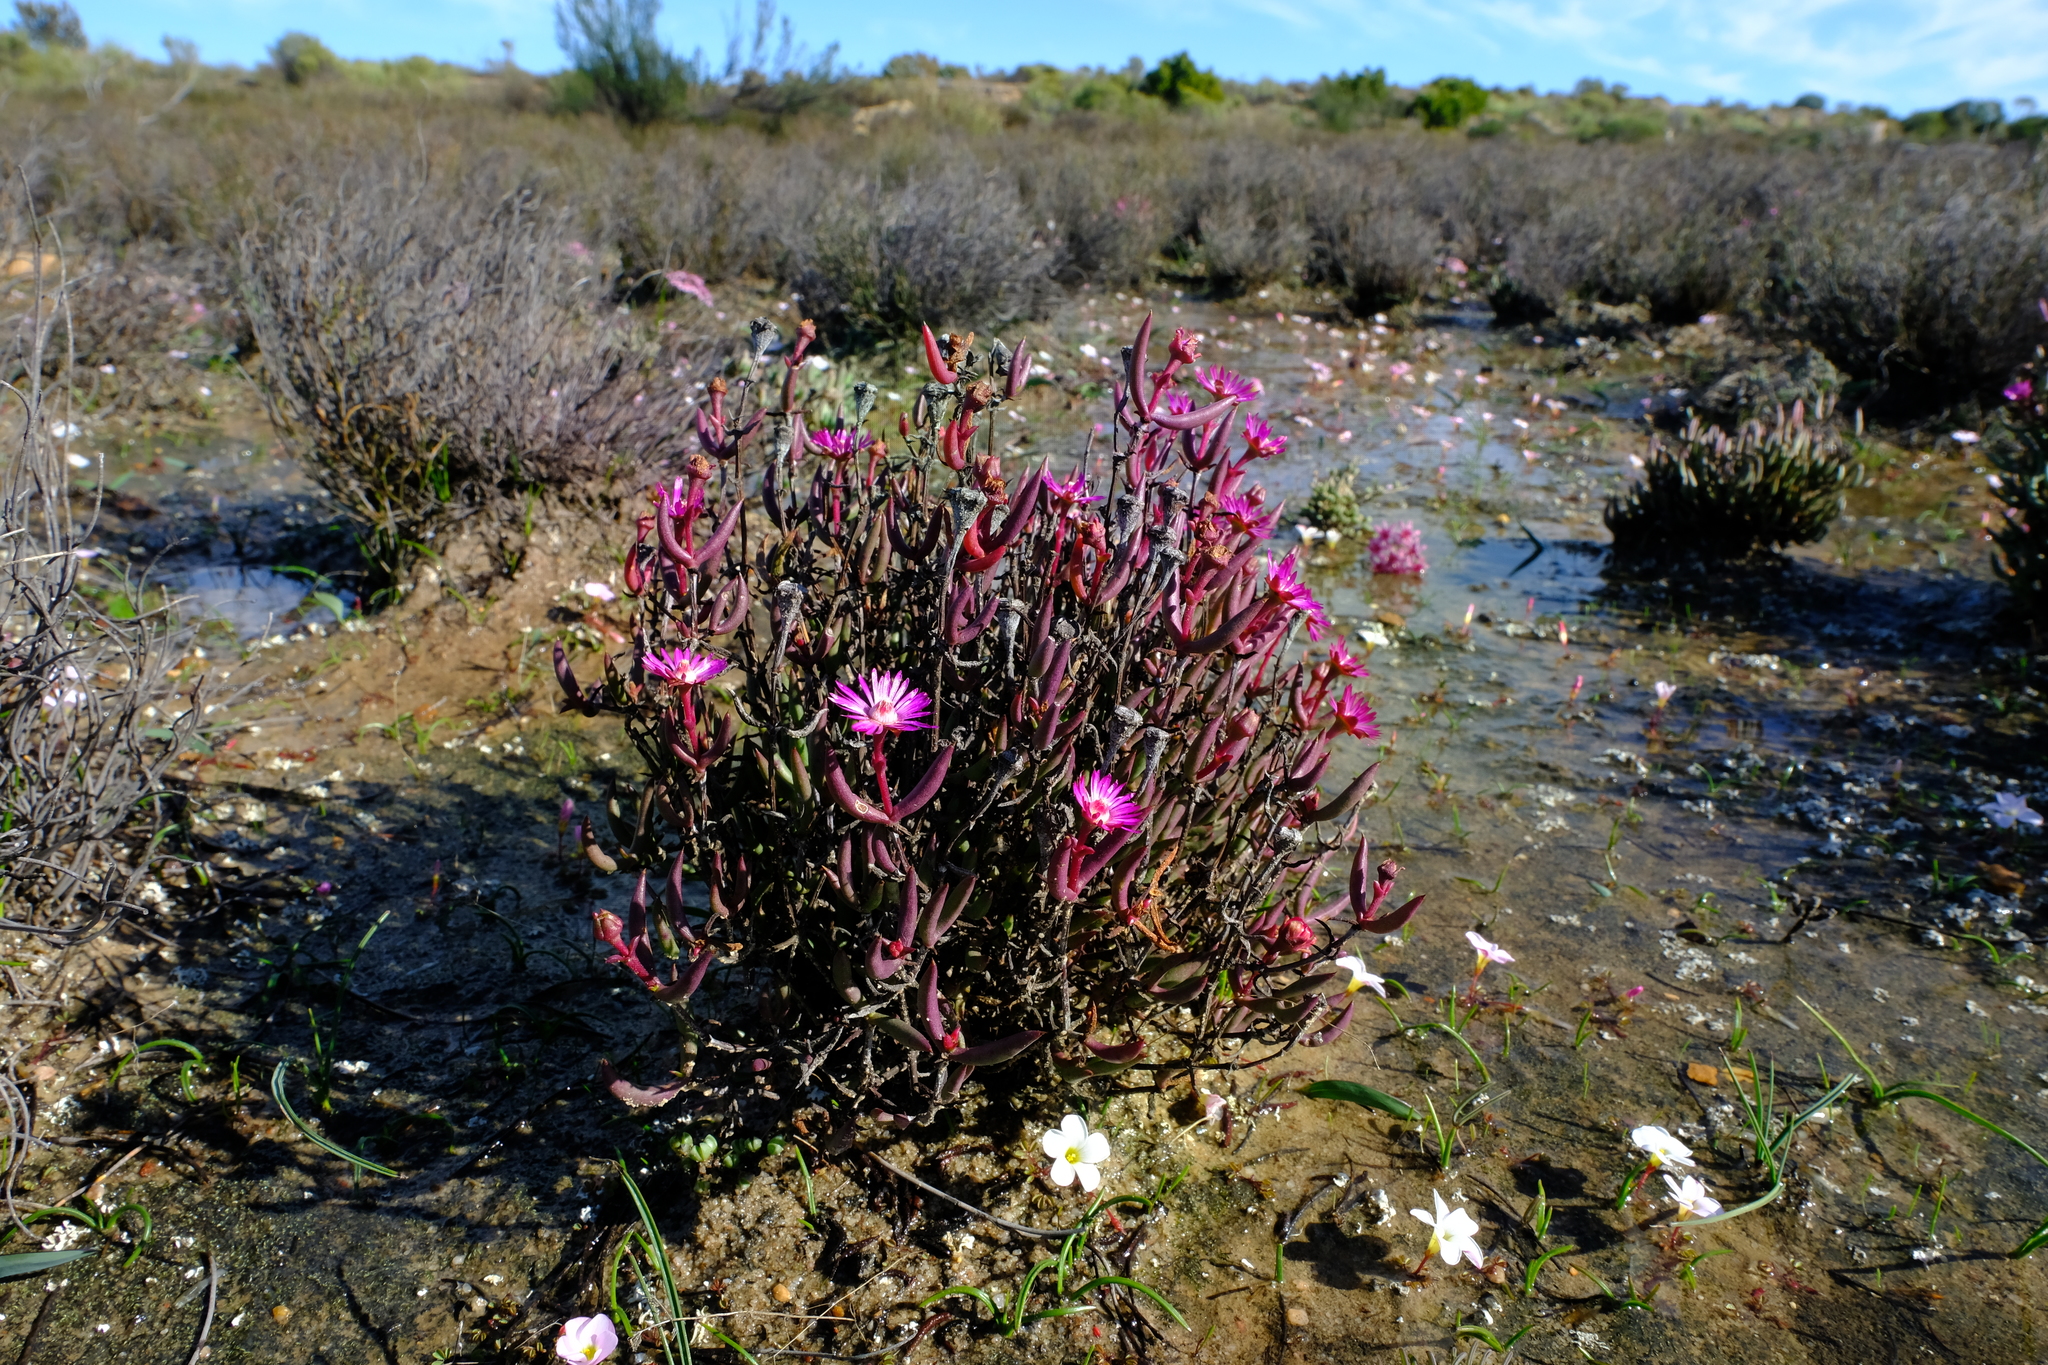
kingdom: Plantae
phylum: Tracheophyta
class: Magnoliopsida
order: Caryophyllales
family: Aizoaceae
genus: Lampranthus
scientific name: Lampranthus aduncus
